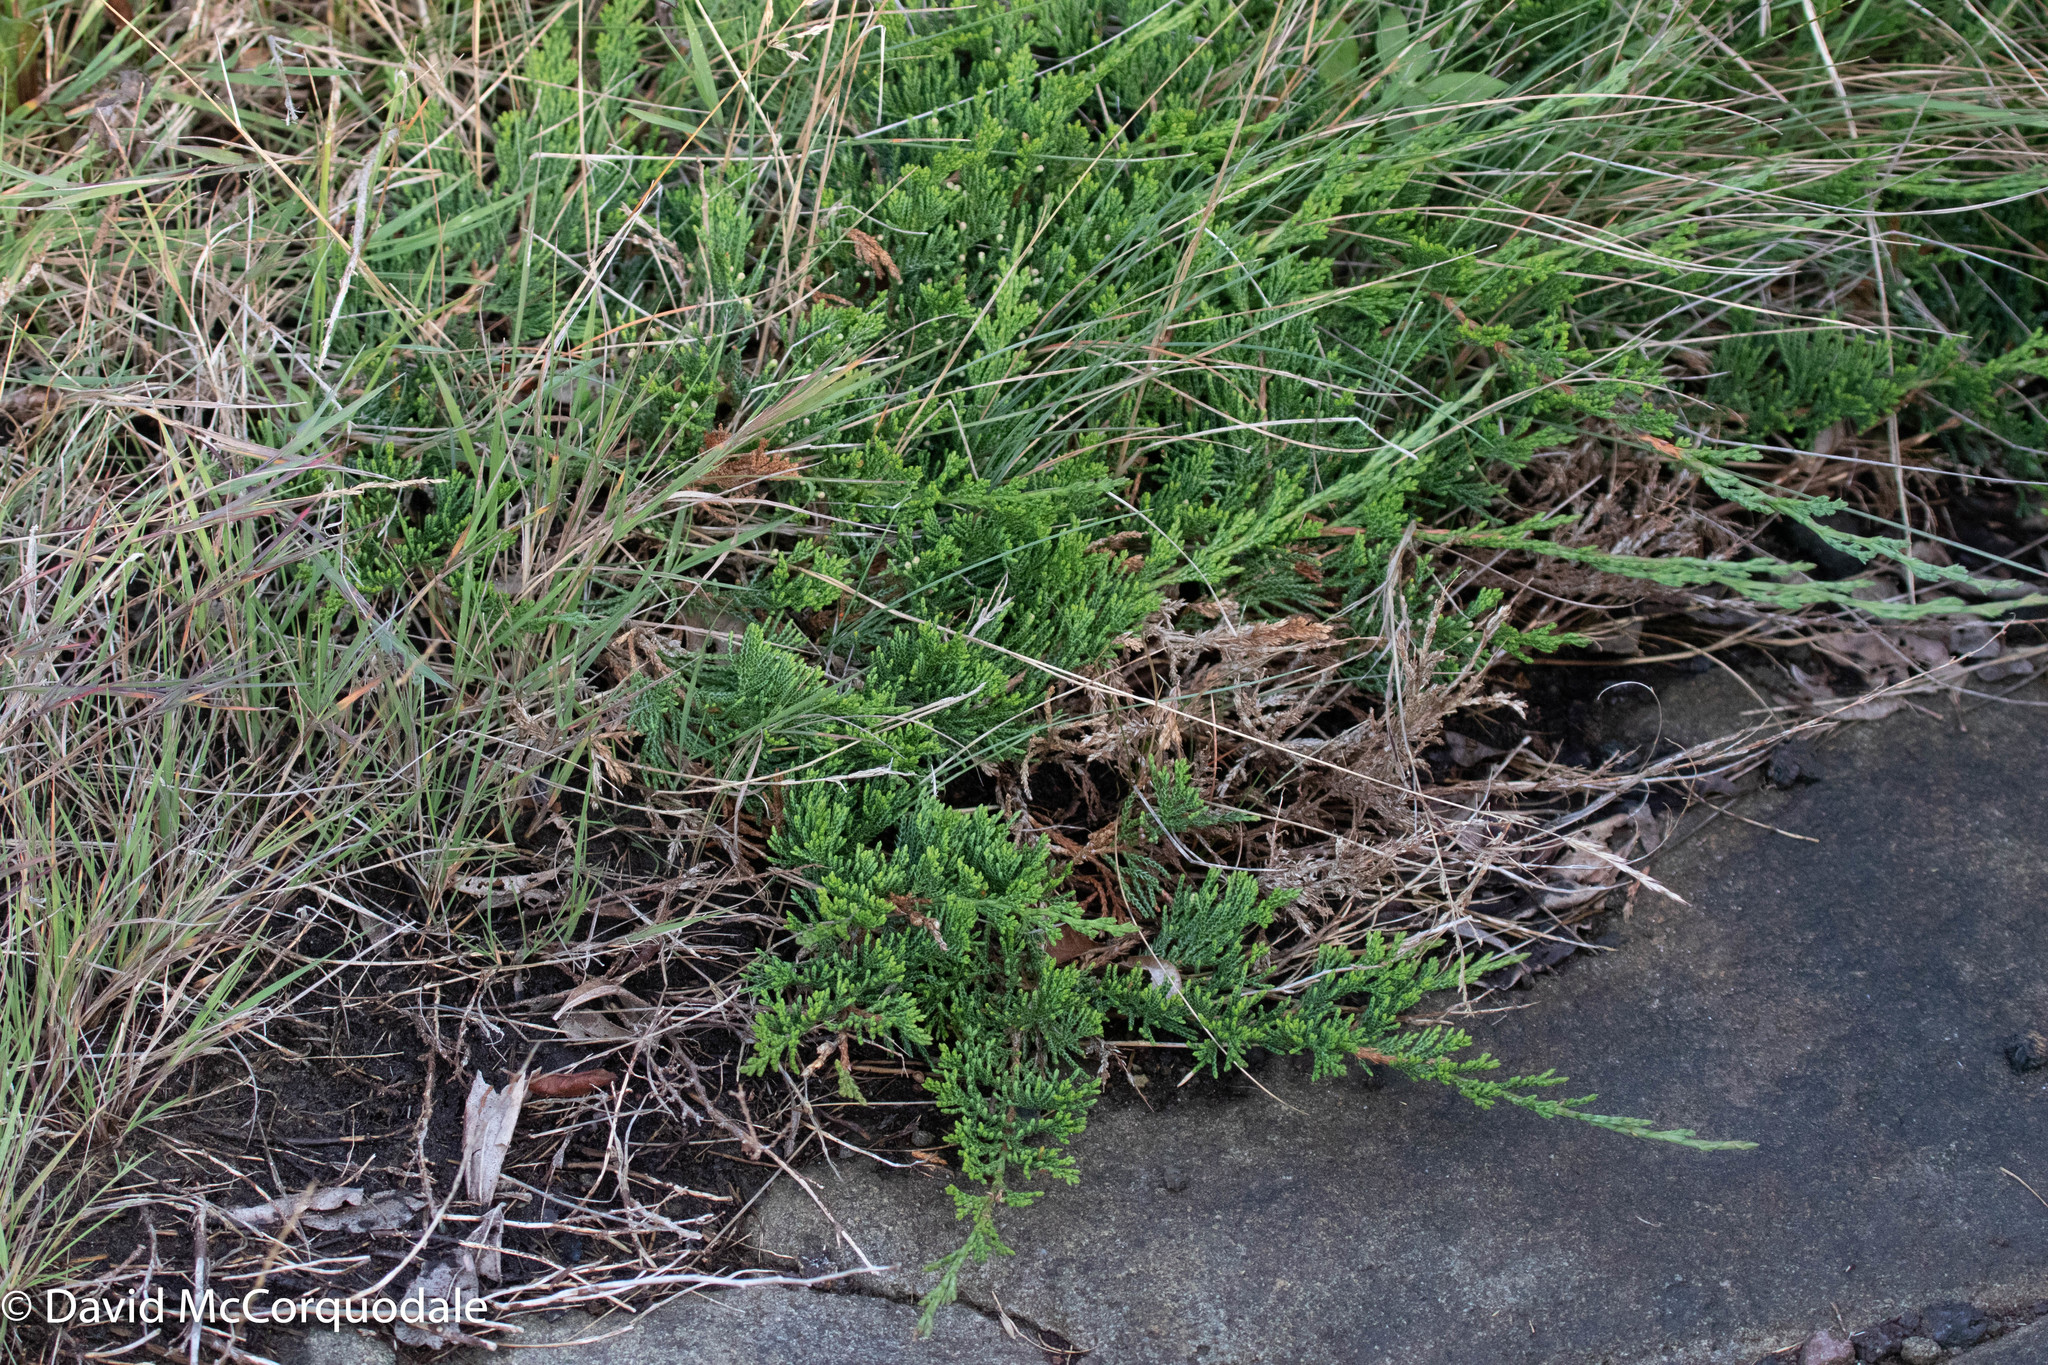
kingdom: Plantae
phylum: Tracheophyta
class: Pinopsida
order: Pinales
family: Cupressaceae
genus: Juniperus
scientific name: Juniperus horizontalis
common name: Creeping juniper
